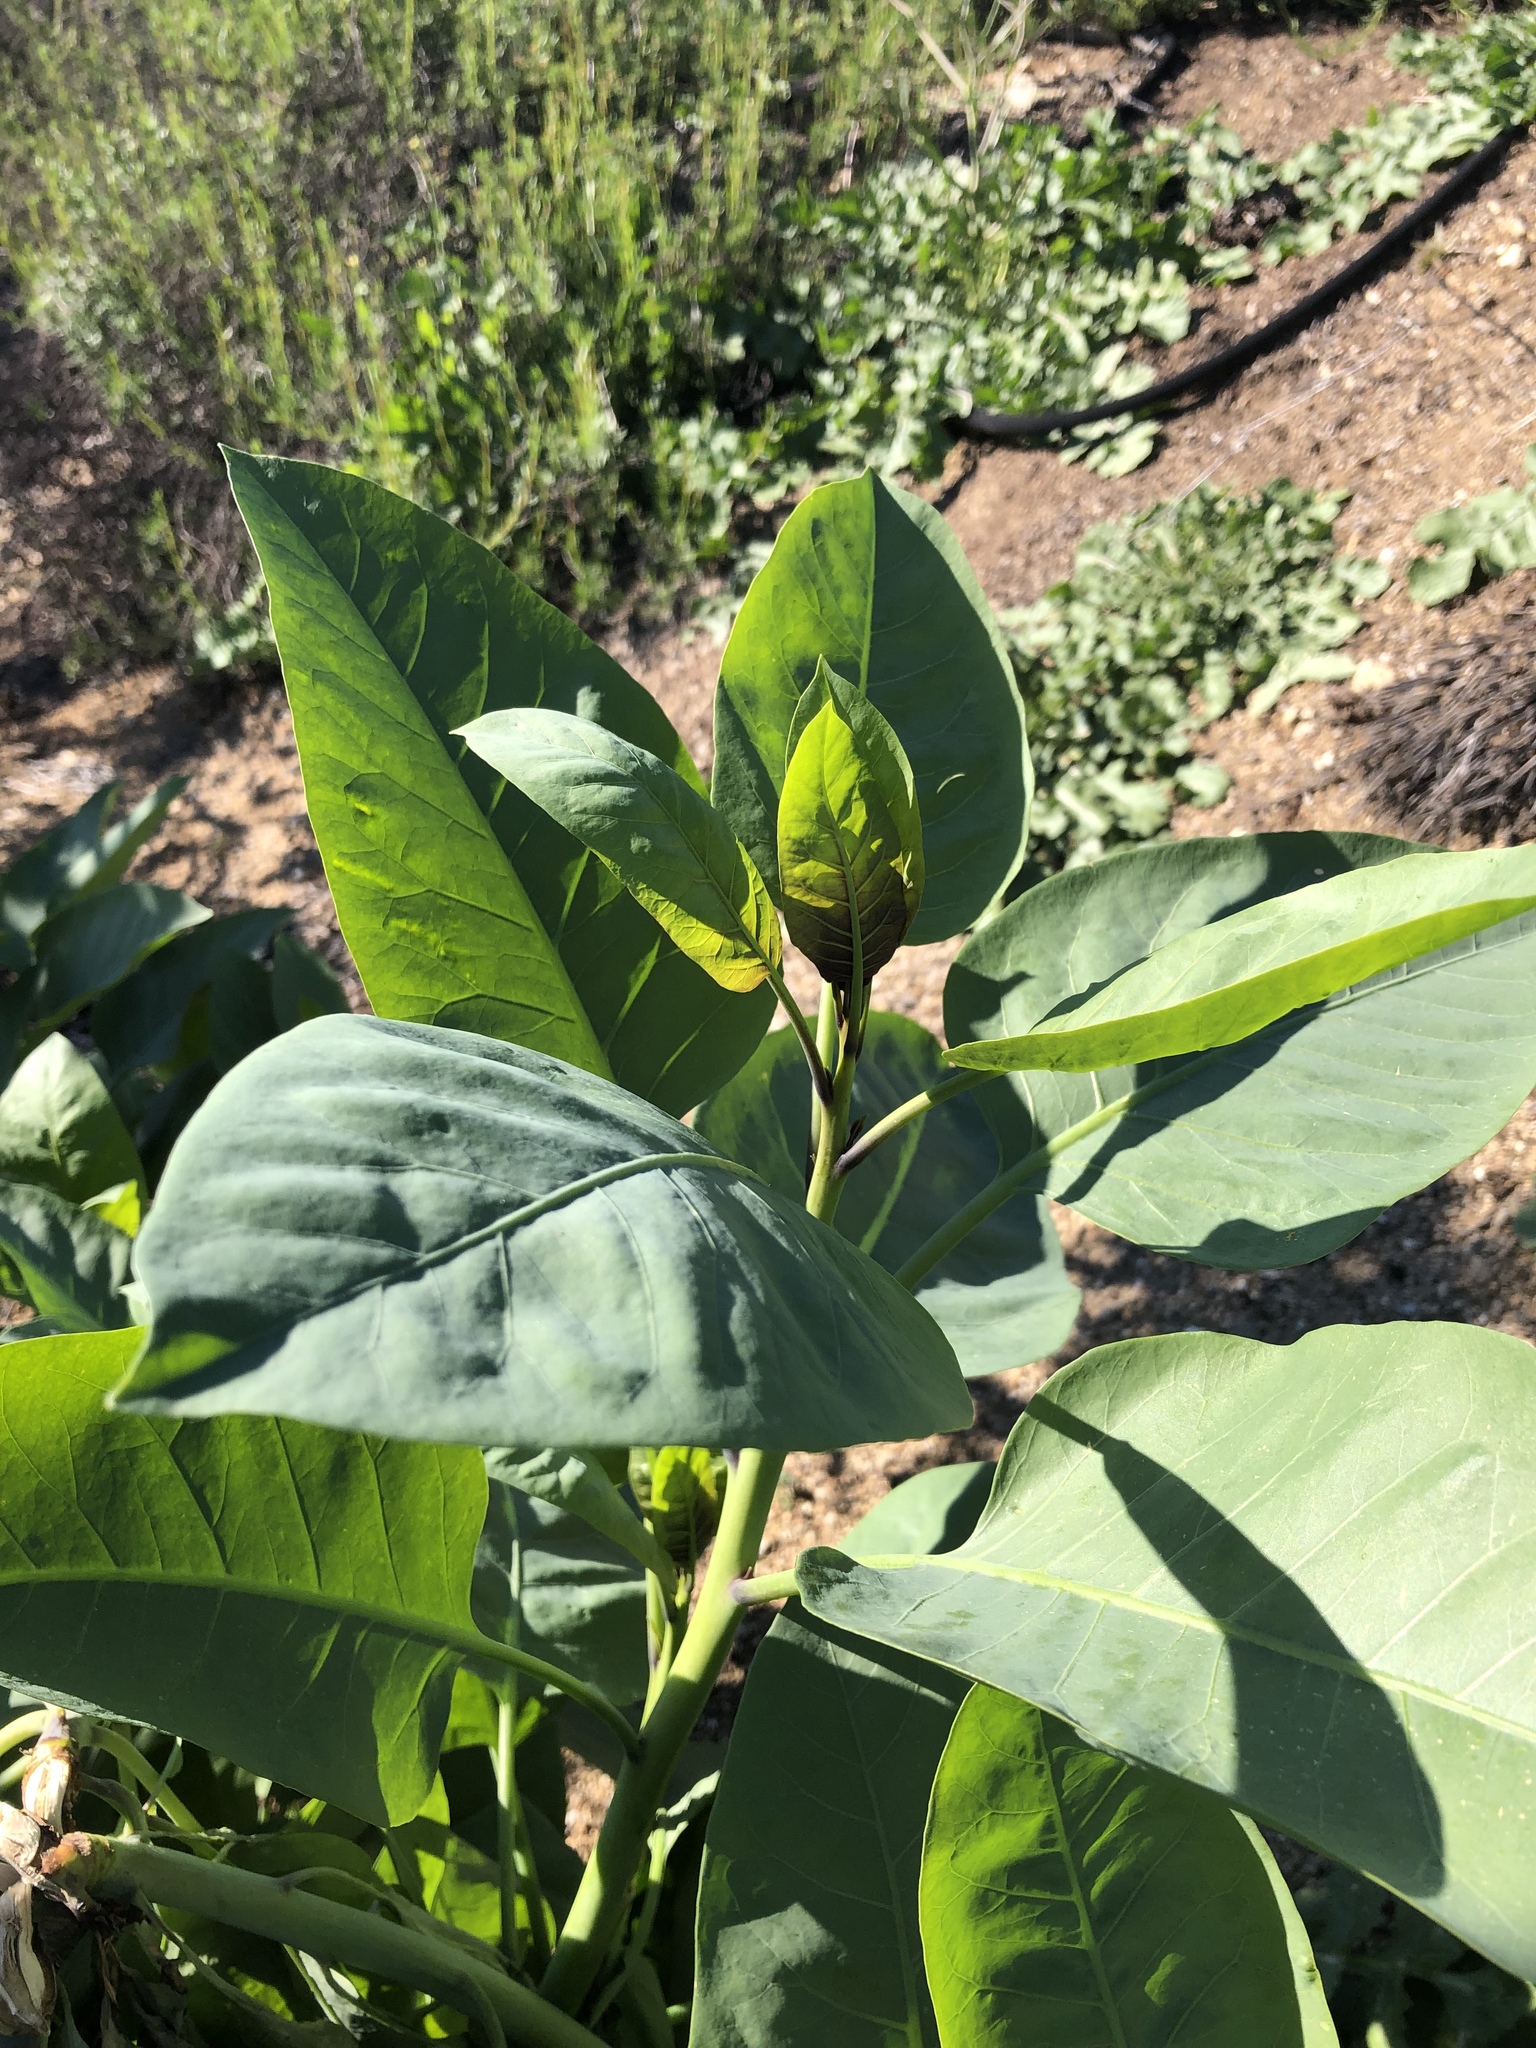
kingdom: Plantae
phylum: Tracheophyta
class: Magnoliopsida
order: Solanales
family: Solanaceae
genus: Nicotiana
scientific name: Nicotiana glauca
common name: Tree tobacco
